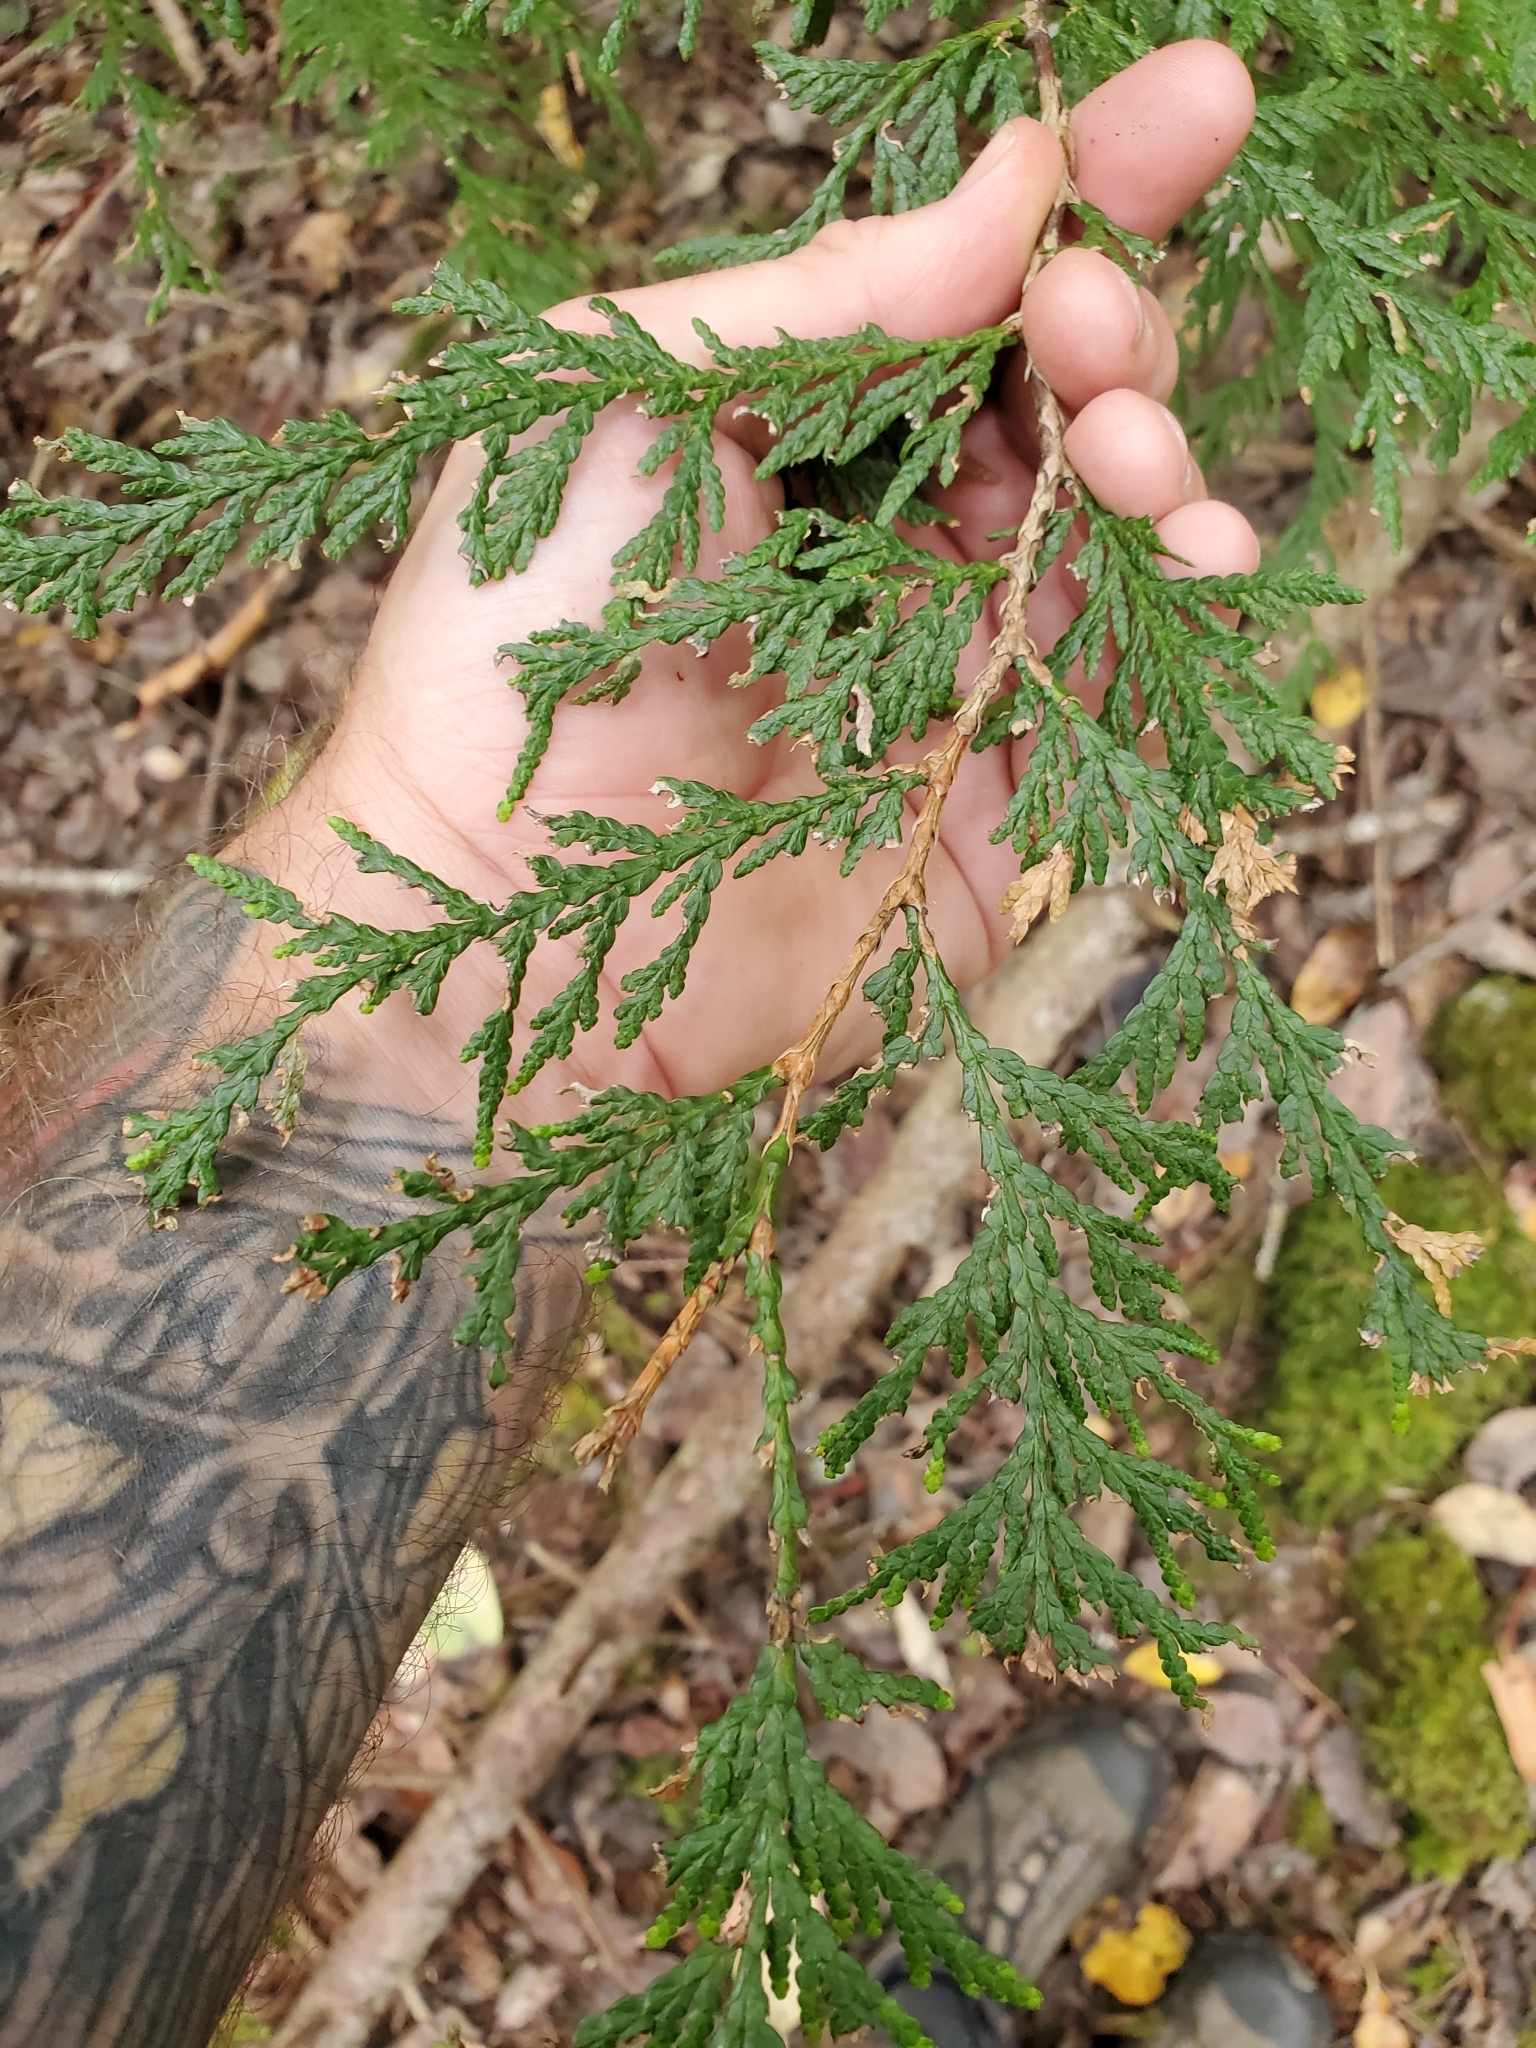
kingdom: Plantae
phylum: Tracheophyta
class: Pinopsida
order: Pinales
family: Cupressaceae
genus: Thuja
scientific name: Thuja plicata
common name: Western red-cedar
